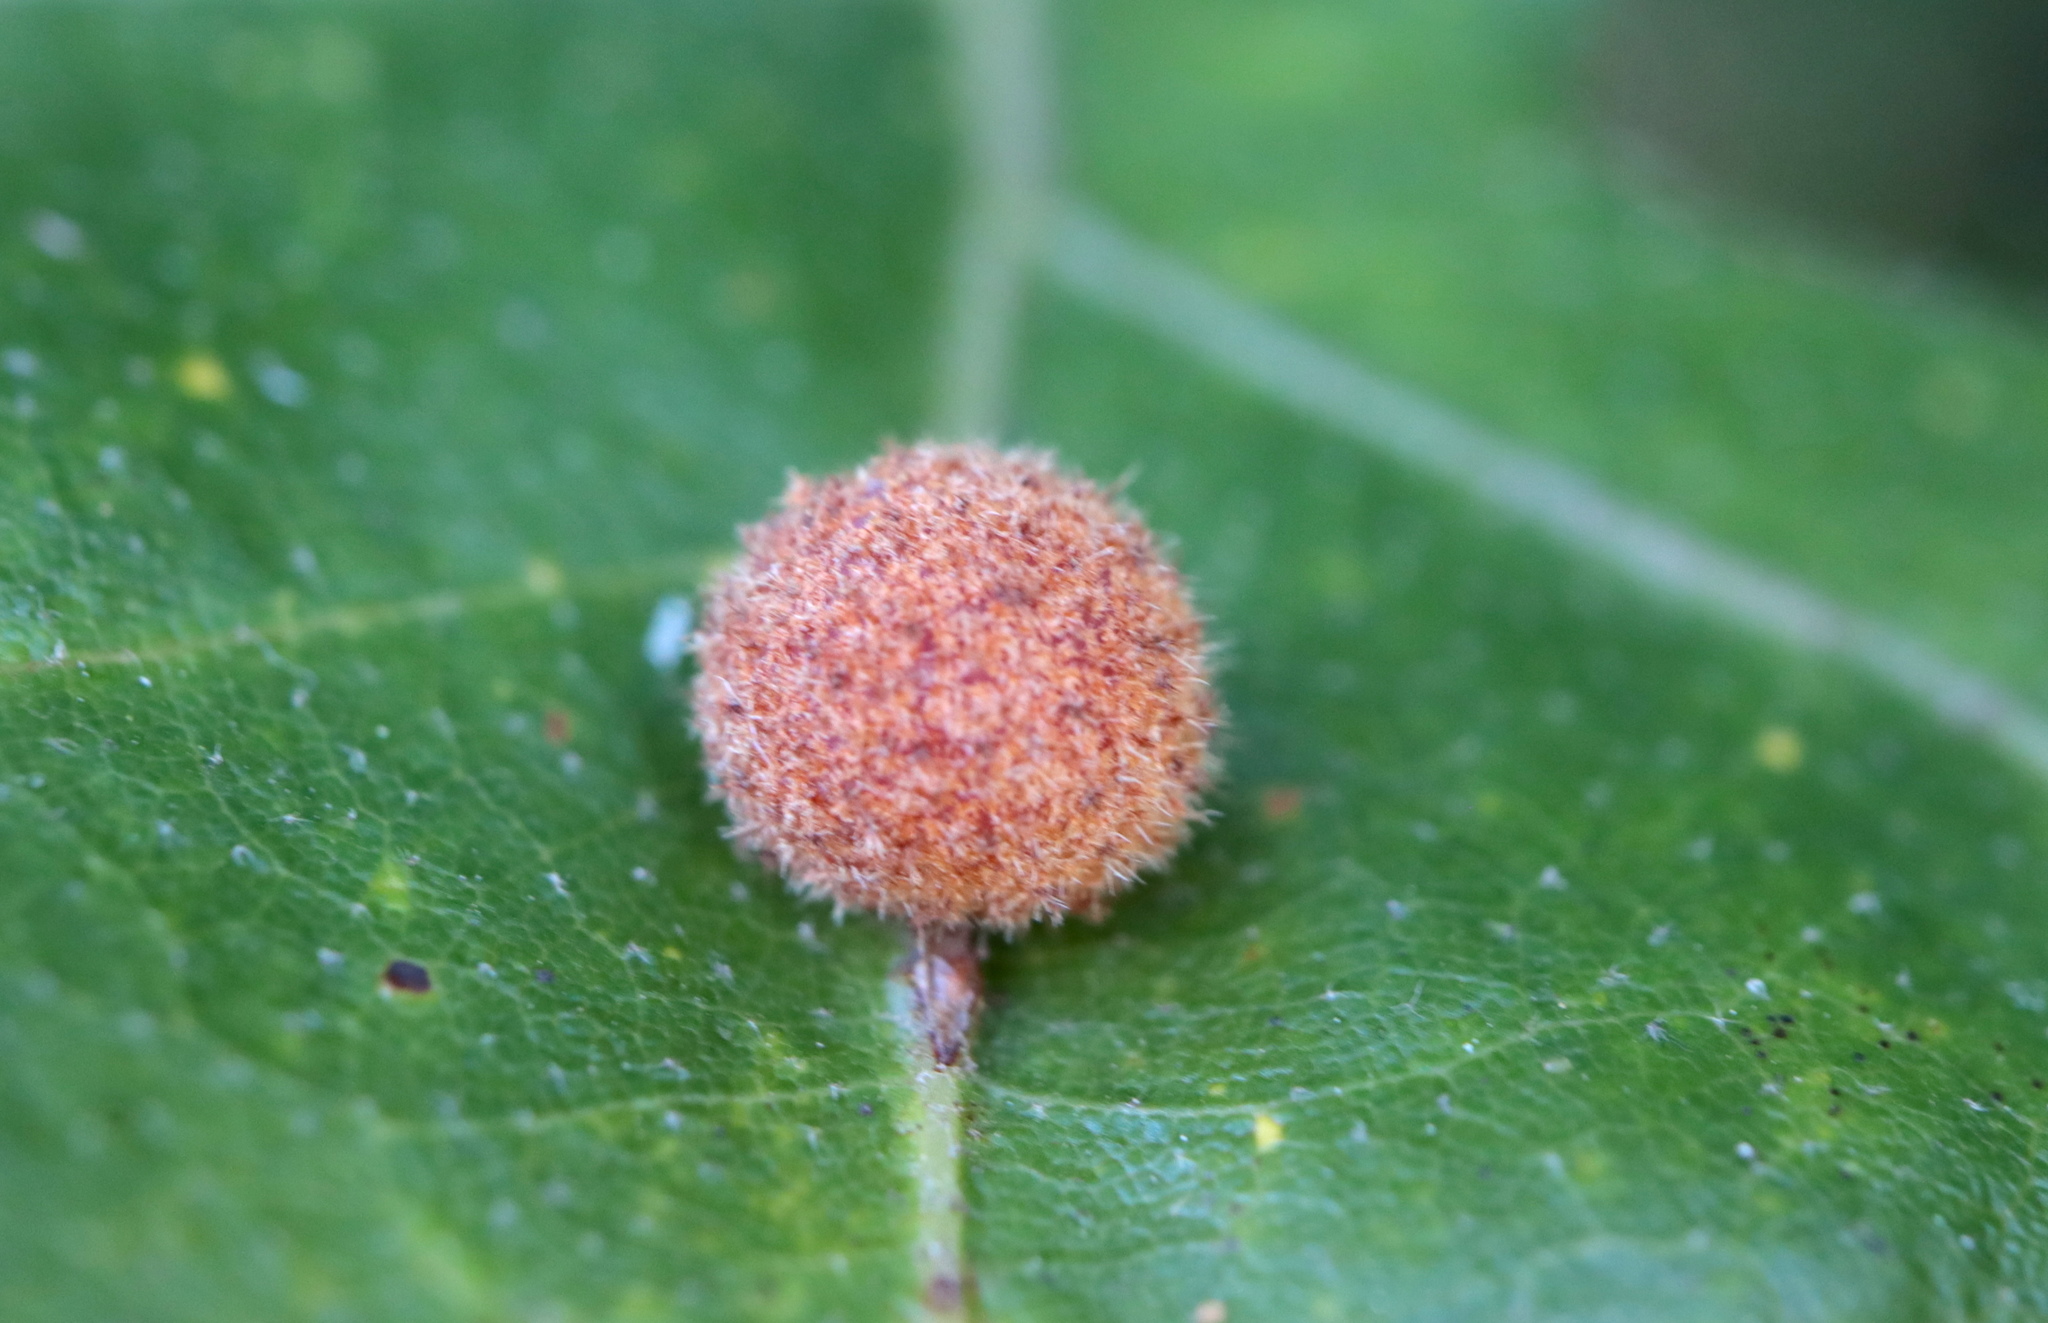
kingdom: Animalia
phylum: Arthropoda
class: Insecta
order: Hymenoptera
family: Cynipidae
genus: Biorhiza
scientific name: Biorhiza Sphaeroteras carolina
